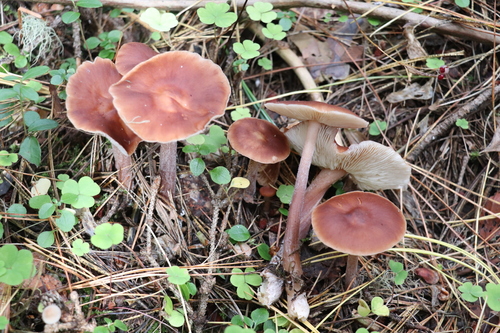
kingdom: Fungi
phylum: Basidiomycota
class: Agaricomycetes
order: Agaricales
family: Omphalotaceae
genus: Rhodocollybia
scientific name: Rhodocollybia butyracea
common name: Butter cap
